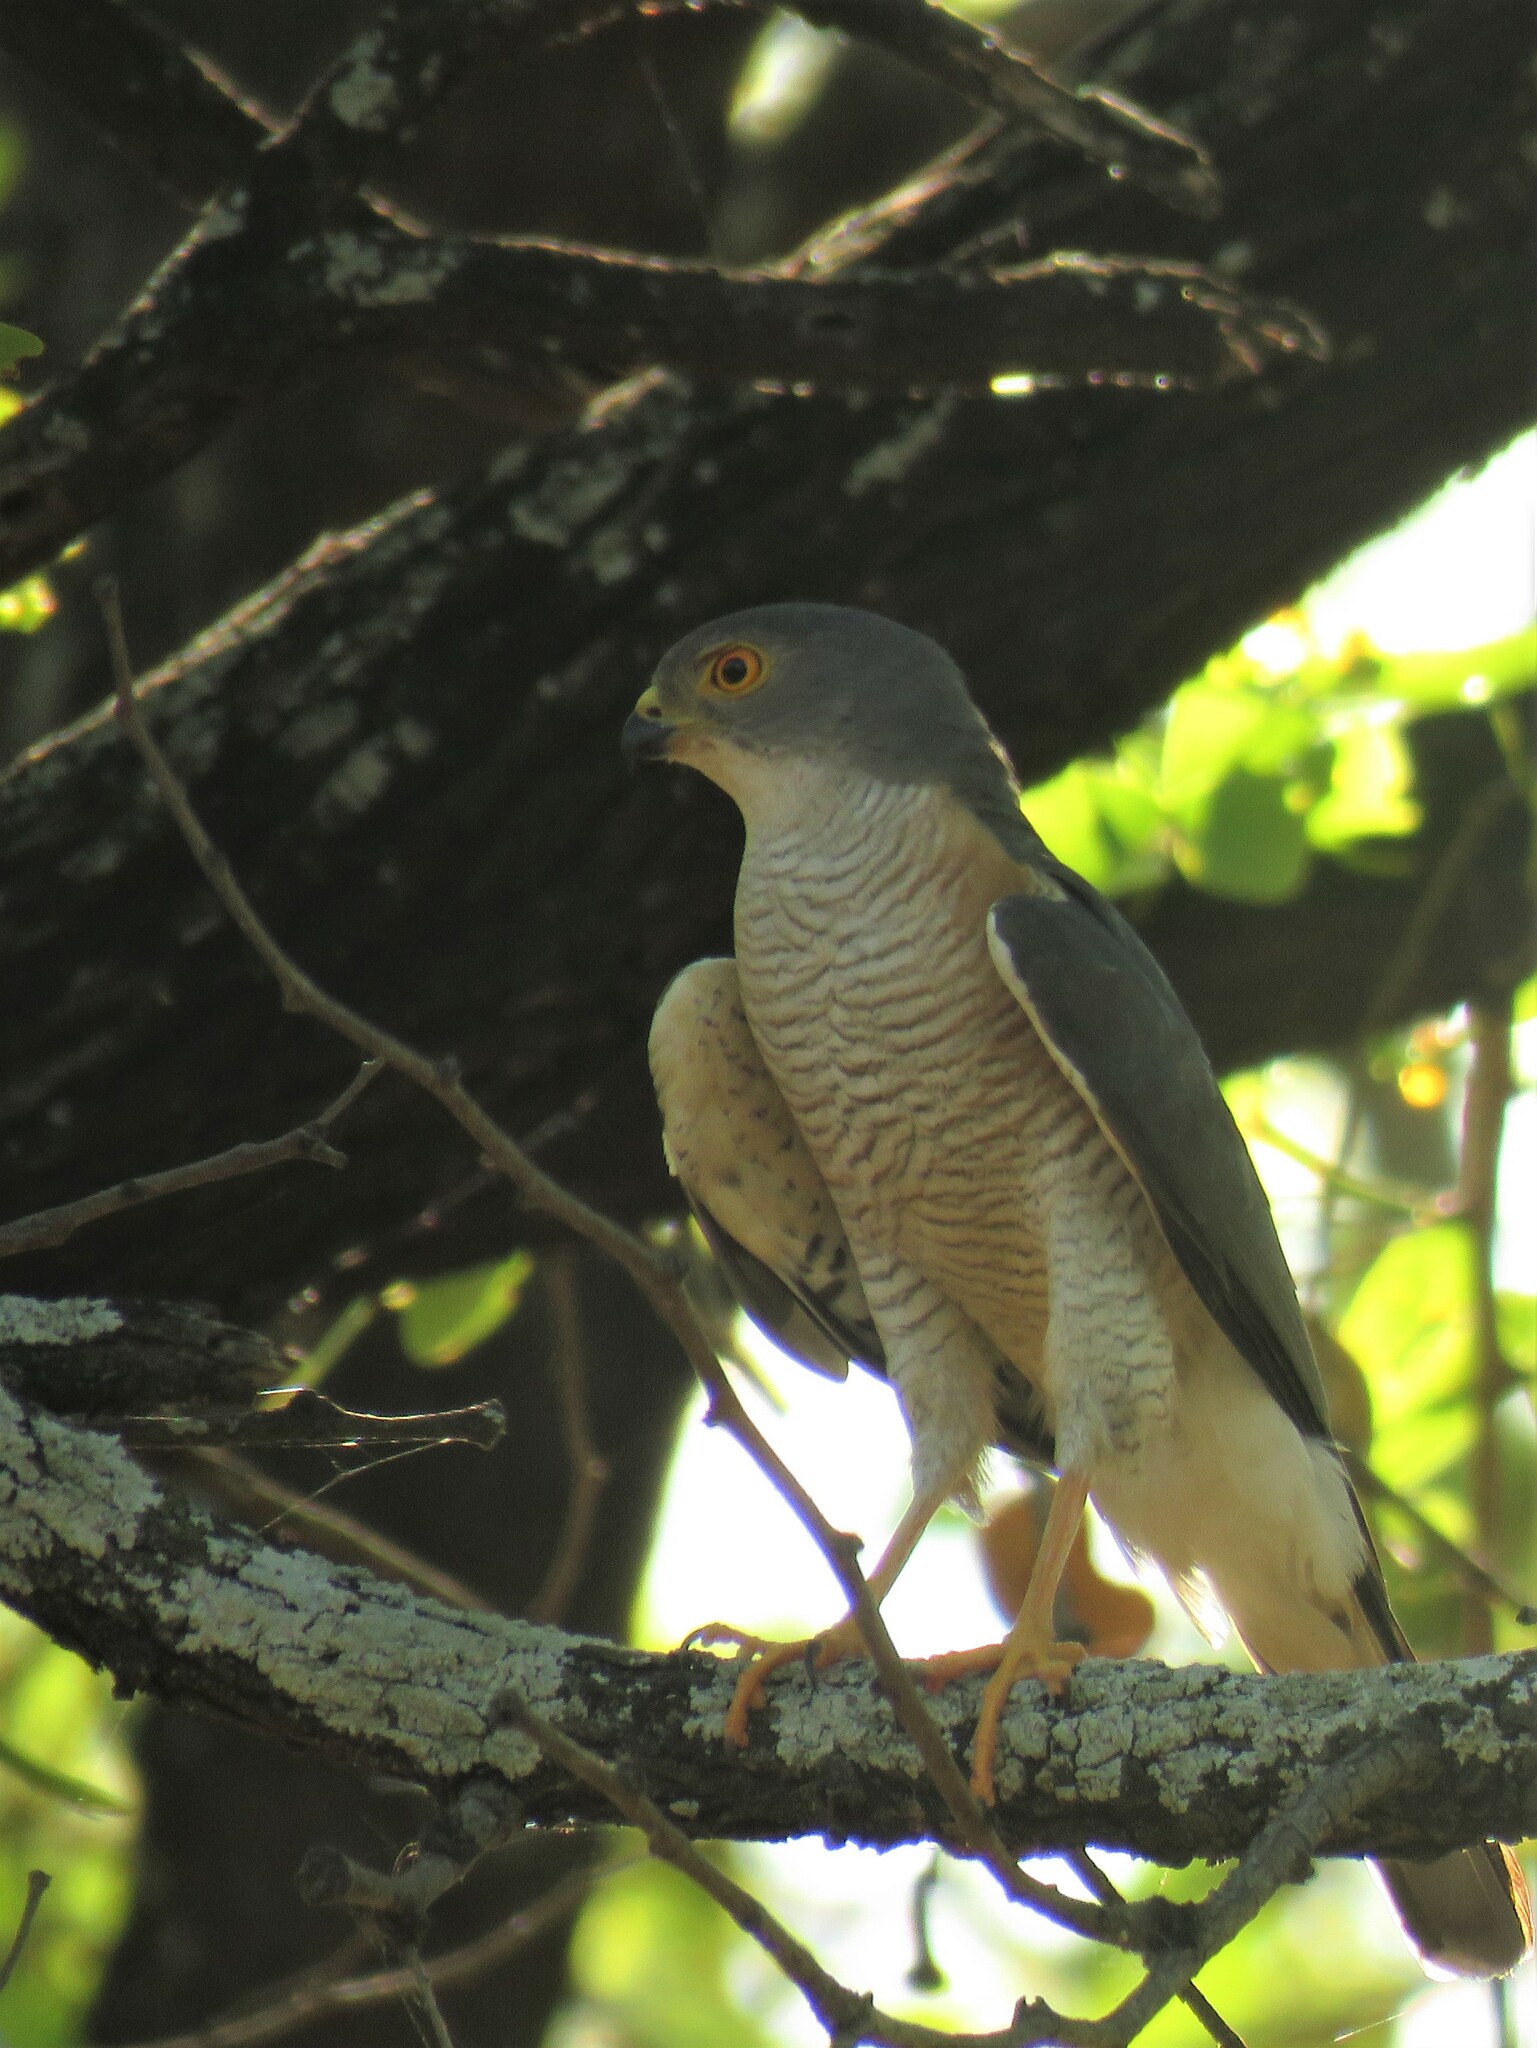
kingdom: Animalia
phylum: Chordata
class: Aves
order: Accipitriformes
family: Accipitridae
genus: Accipiter
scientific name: Accipiter minullus
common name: Little sparrowhawk
